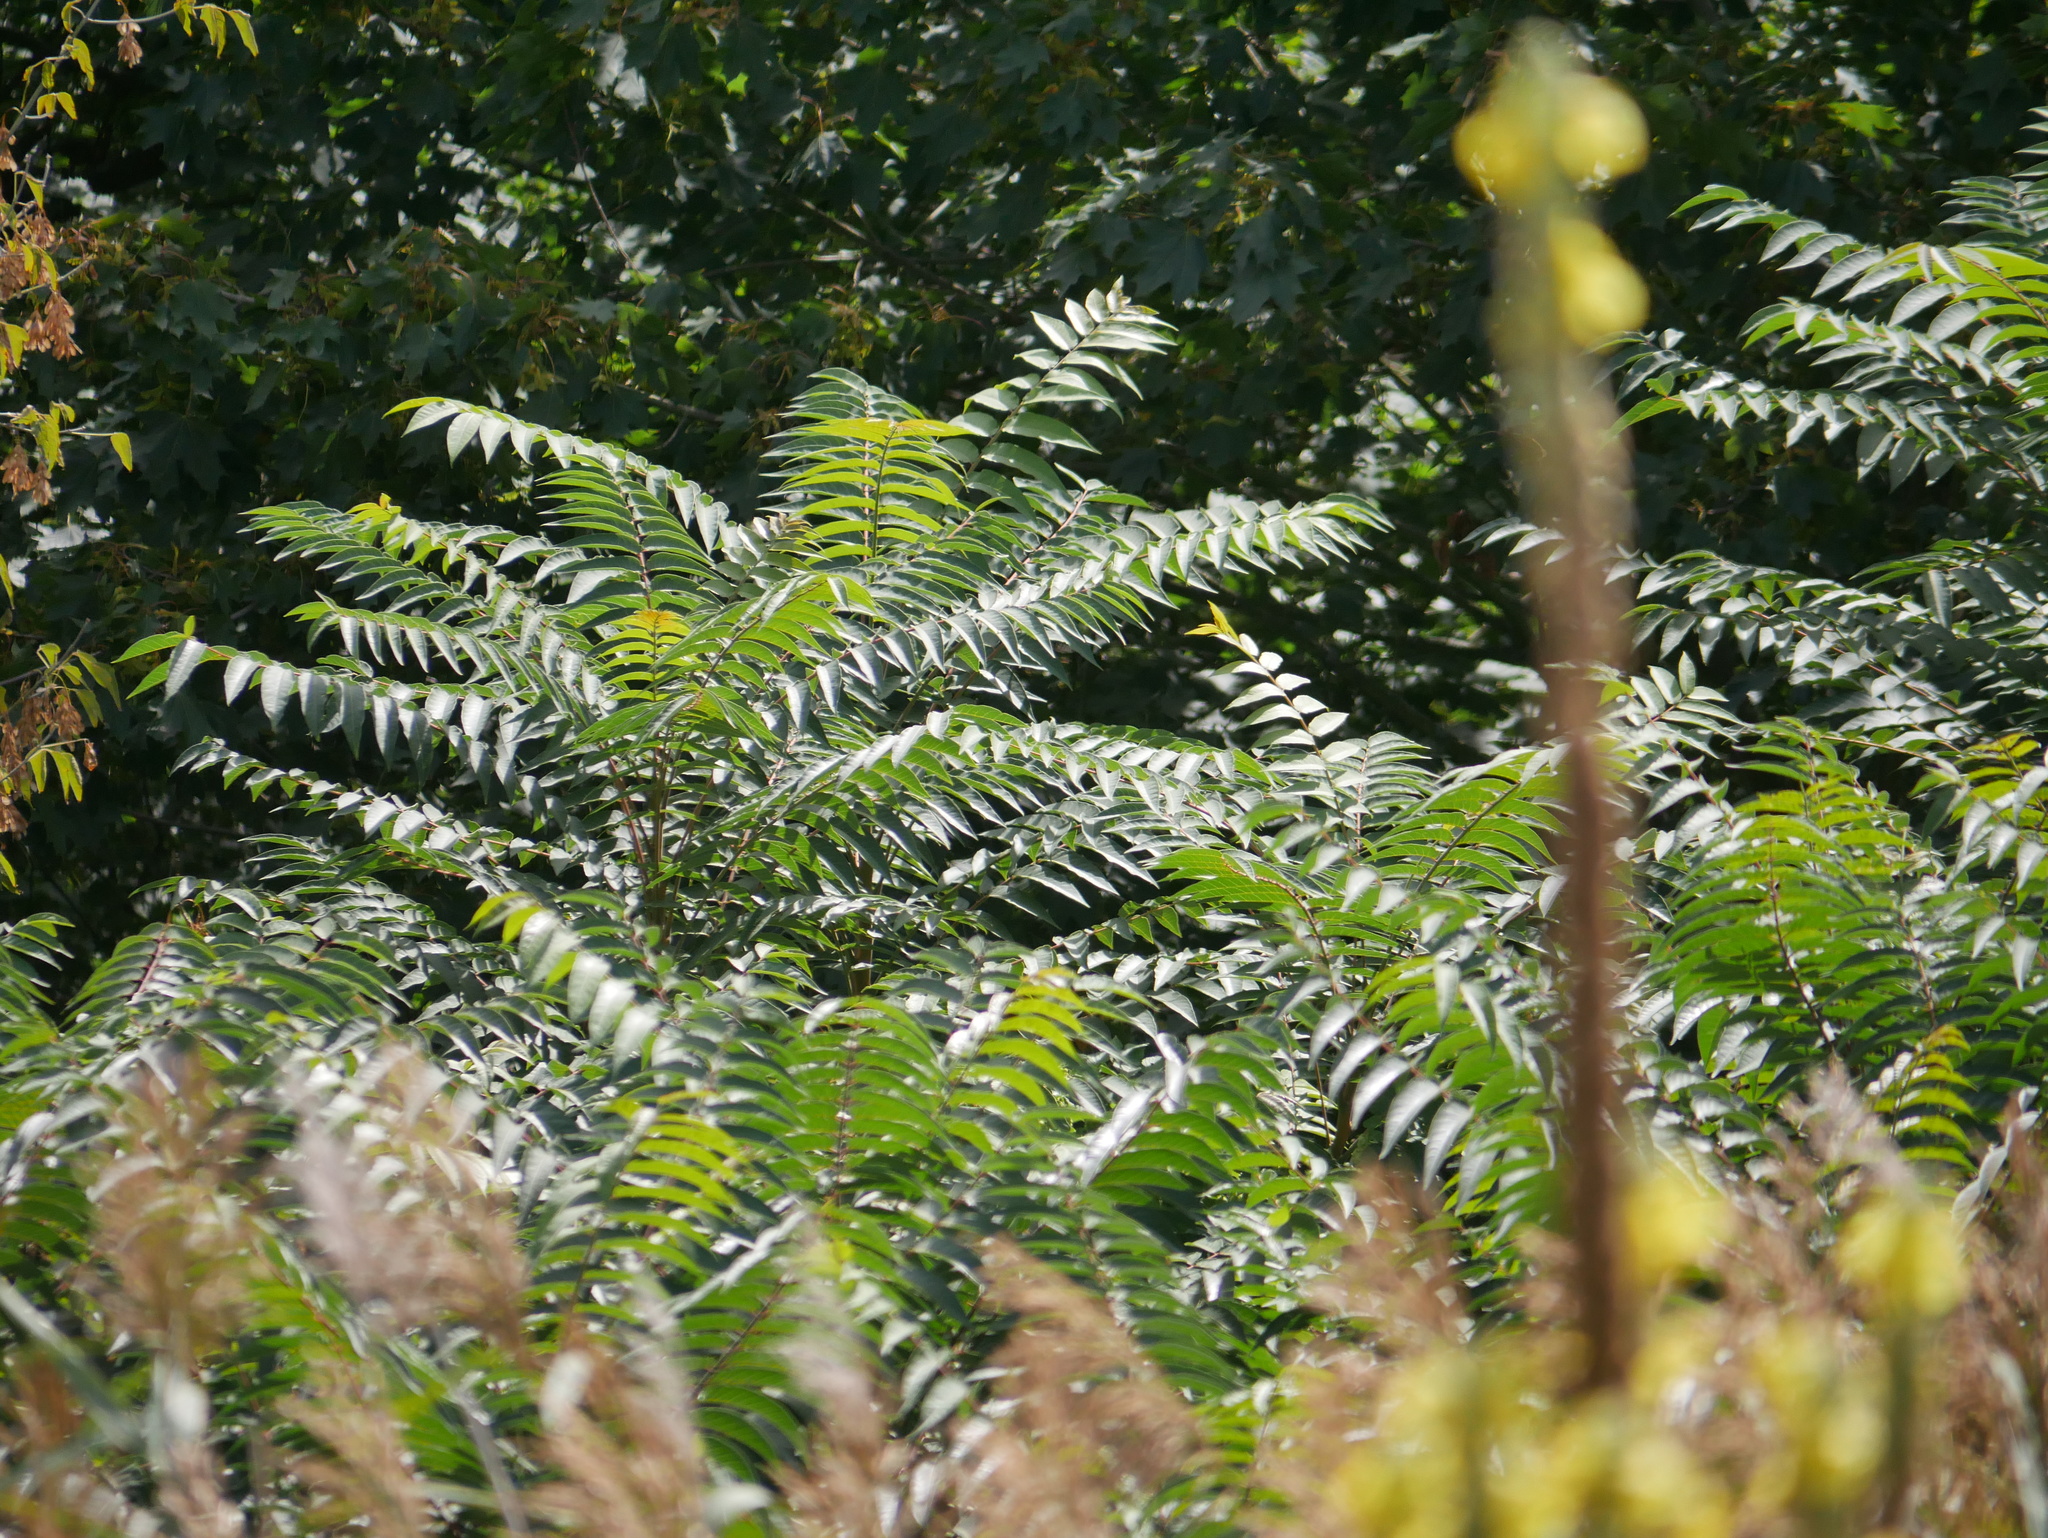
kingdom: Plantae
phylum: Tracheophyta
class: Magnoliopsida
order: Sapindales
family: Simaroubaceae
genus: Ailanthus
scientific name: Ailanthus altissima
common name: Tree-of-heaven
